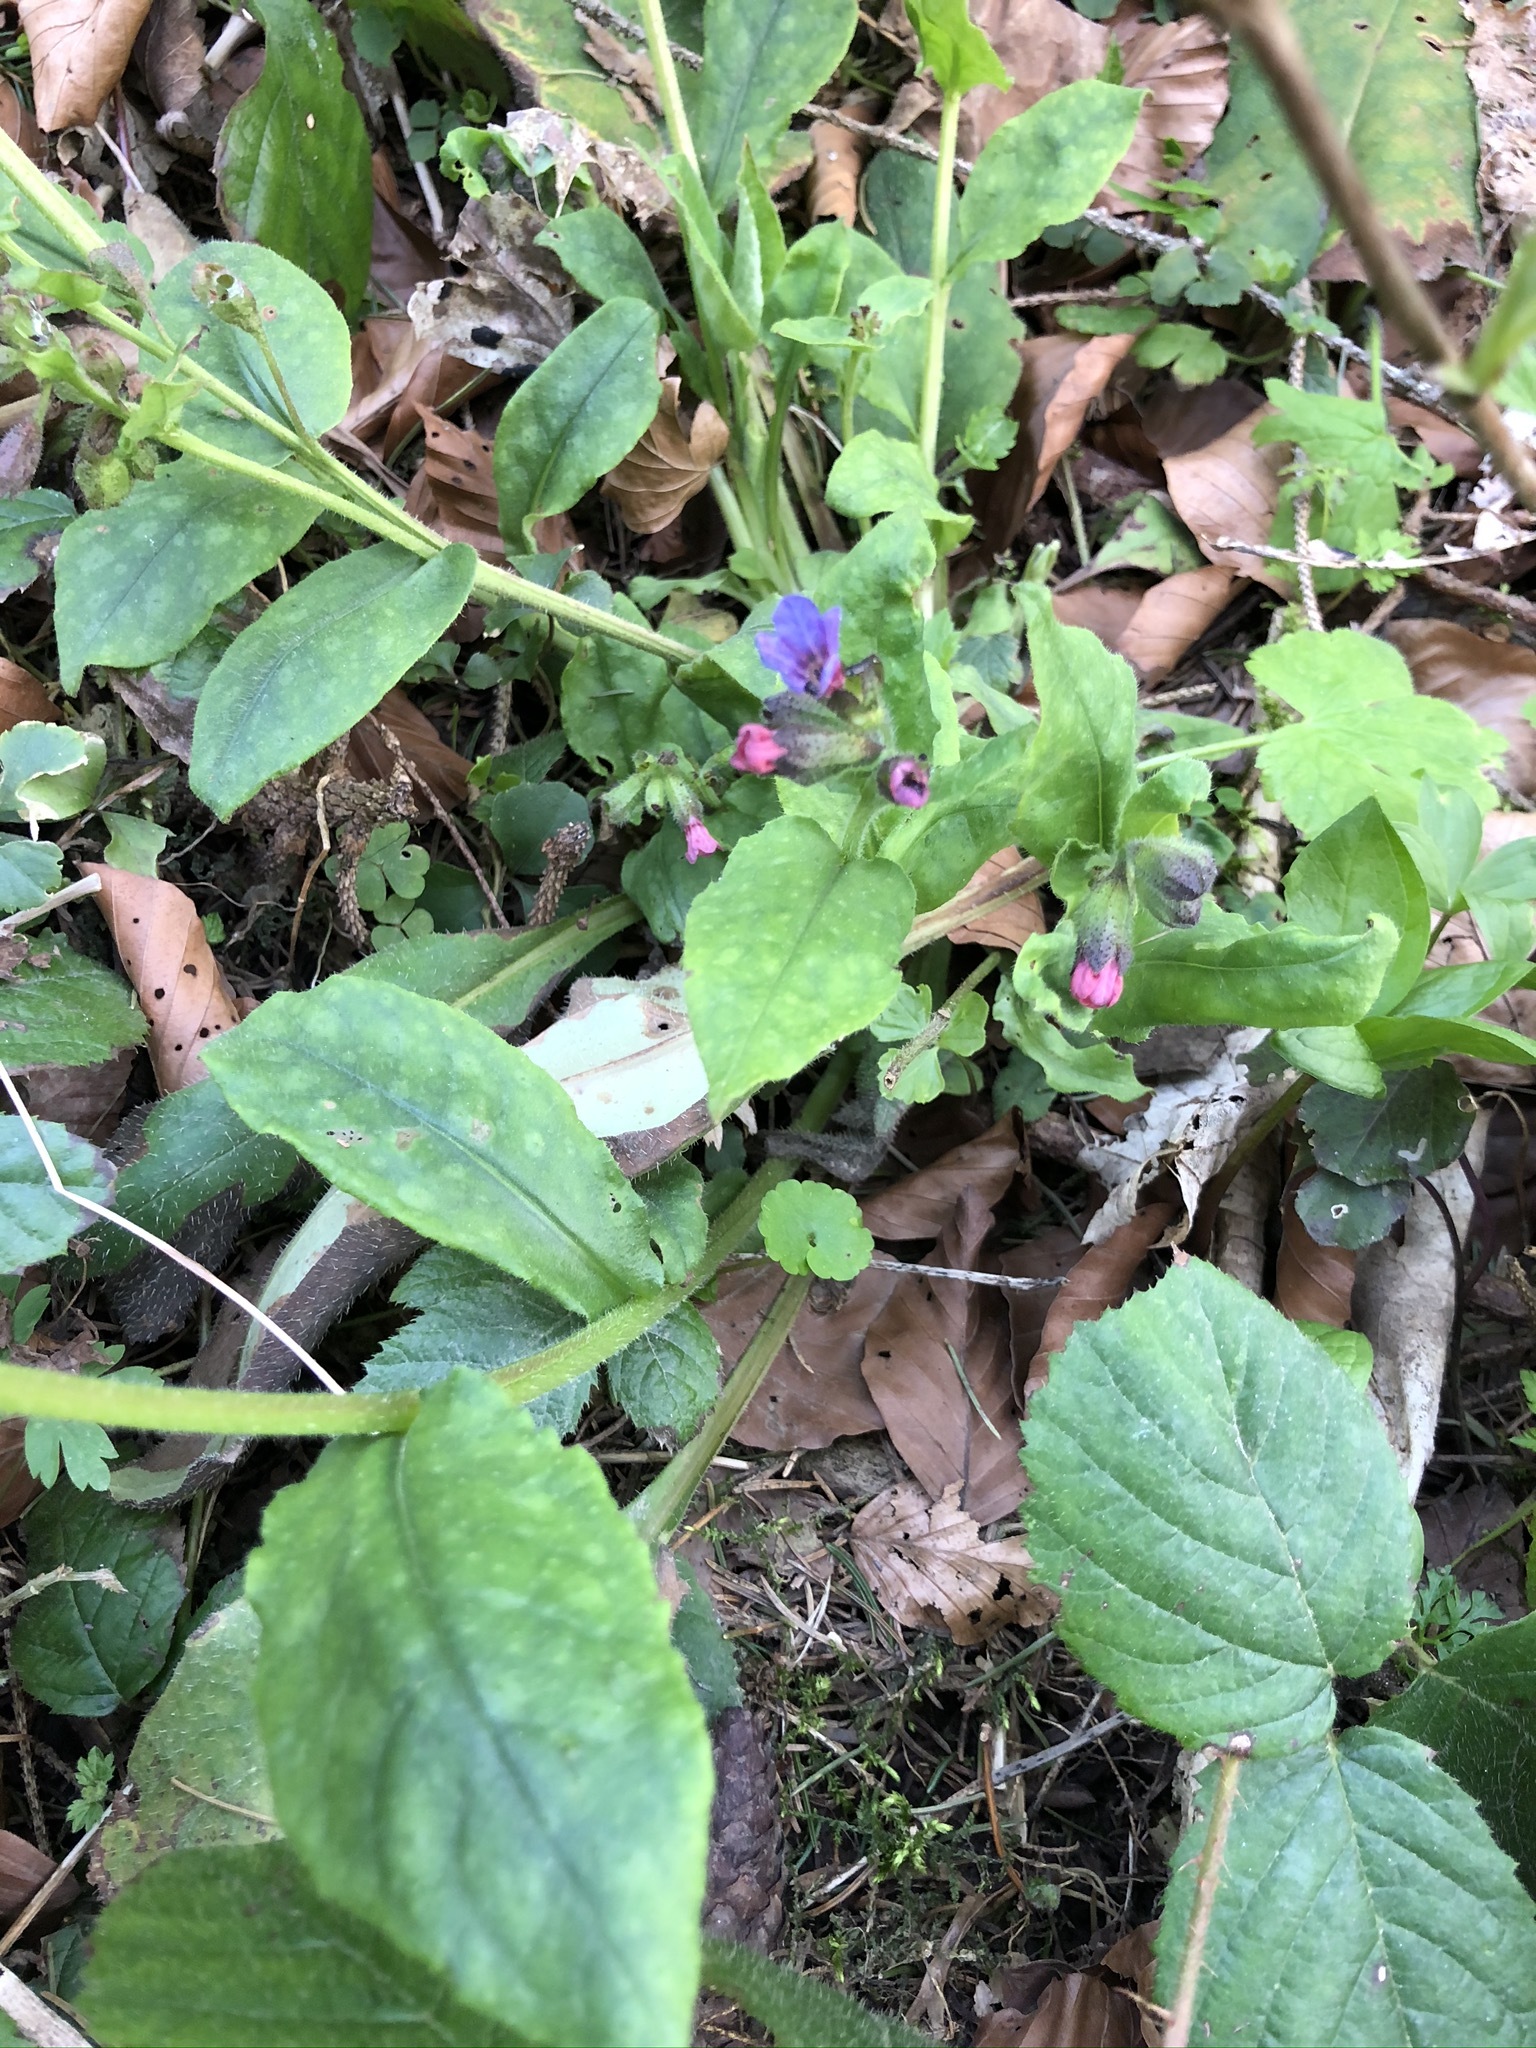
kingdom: Plantae
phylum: Tracheophyta
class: Magnoliopsida
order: Boraginales
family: Boraginaceae
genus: Pulmonaria
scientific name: Pulmonaria officinalis
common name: Lungwort
